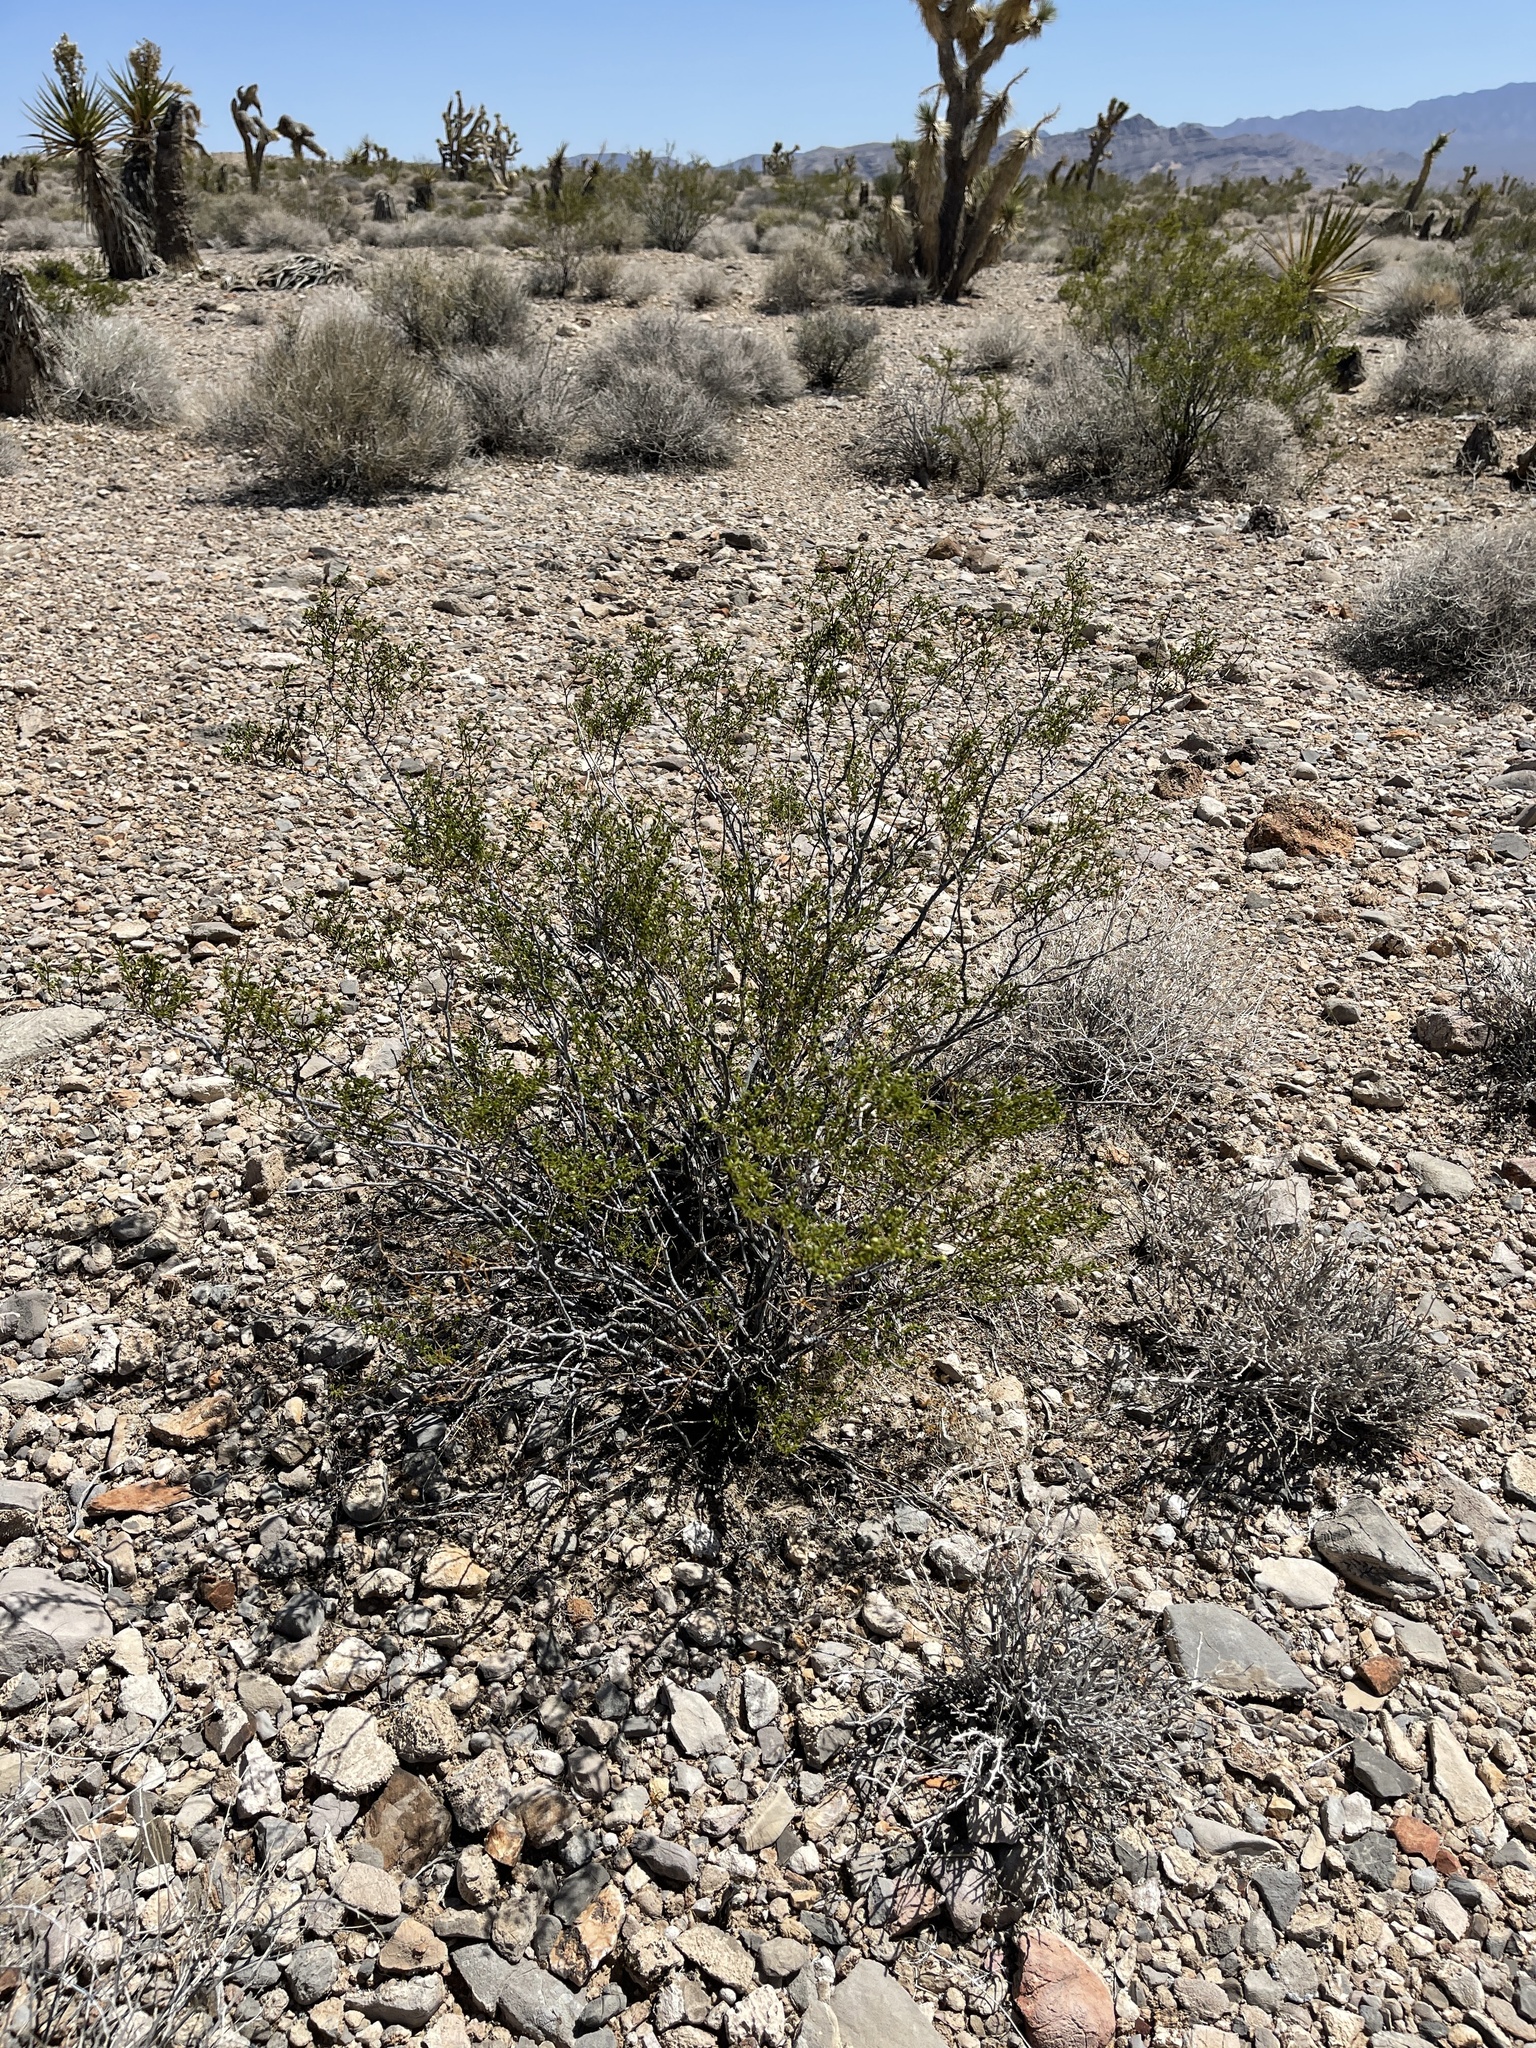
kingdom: Plantae
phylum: Tracheophyta
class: Magnoliopsida
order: Zygophyllales
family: Zygophyllaceae
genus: Larrea
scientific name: Larrea tridentata
